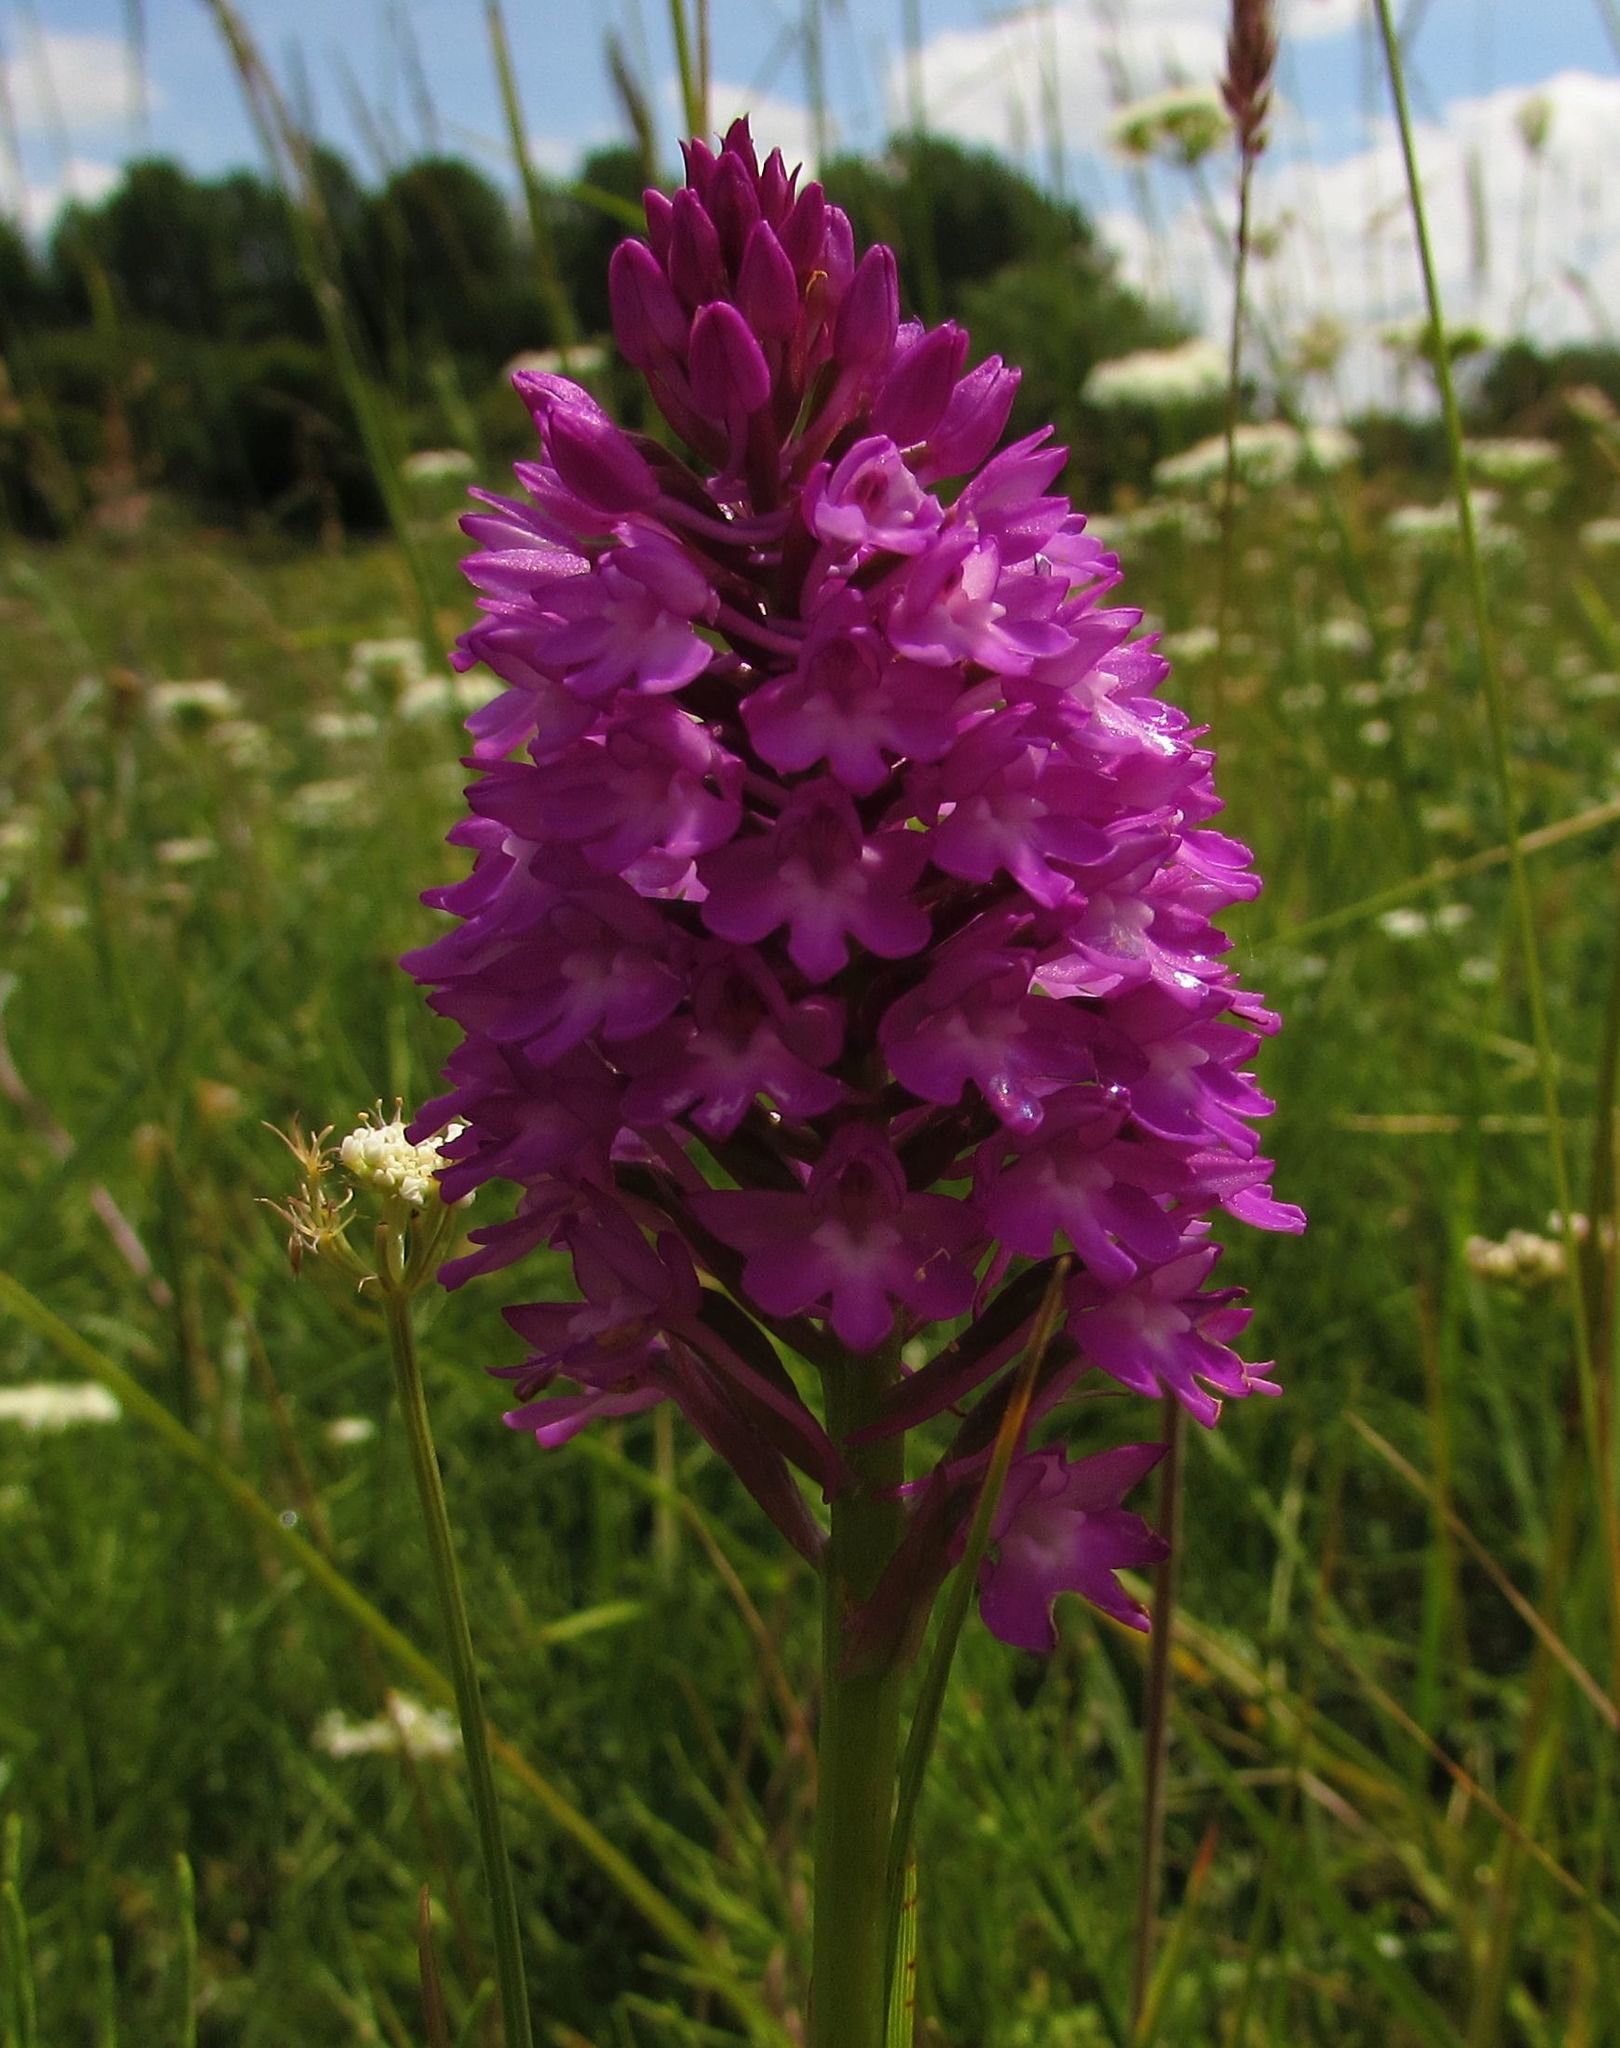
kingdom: Plantae
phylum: Tracheophyta
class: Liliopsida
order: Asparagales
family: Orchidaceae
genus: Anacamptis
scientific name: Anacamptis pyramidalis
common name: Pyramidal orchid
